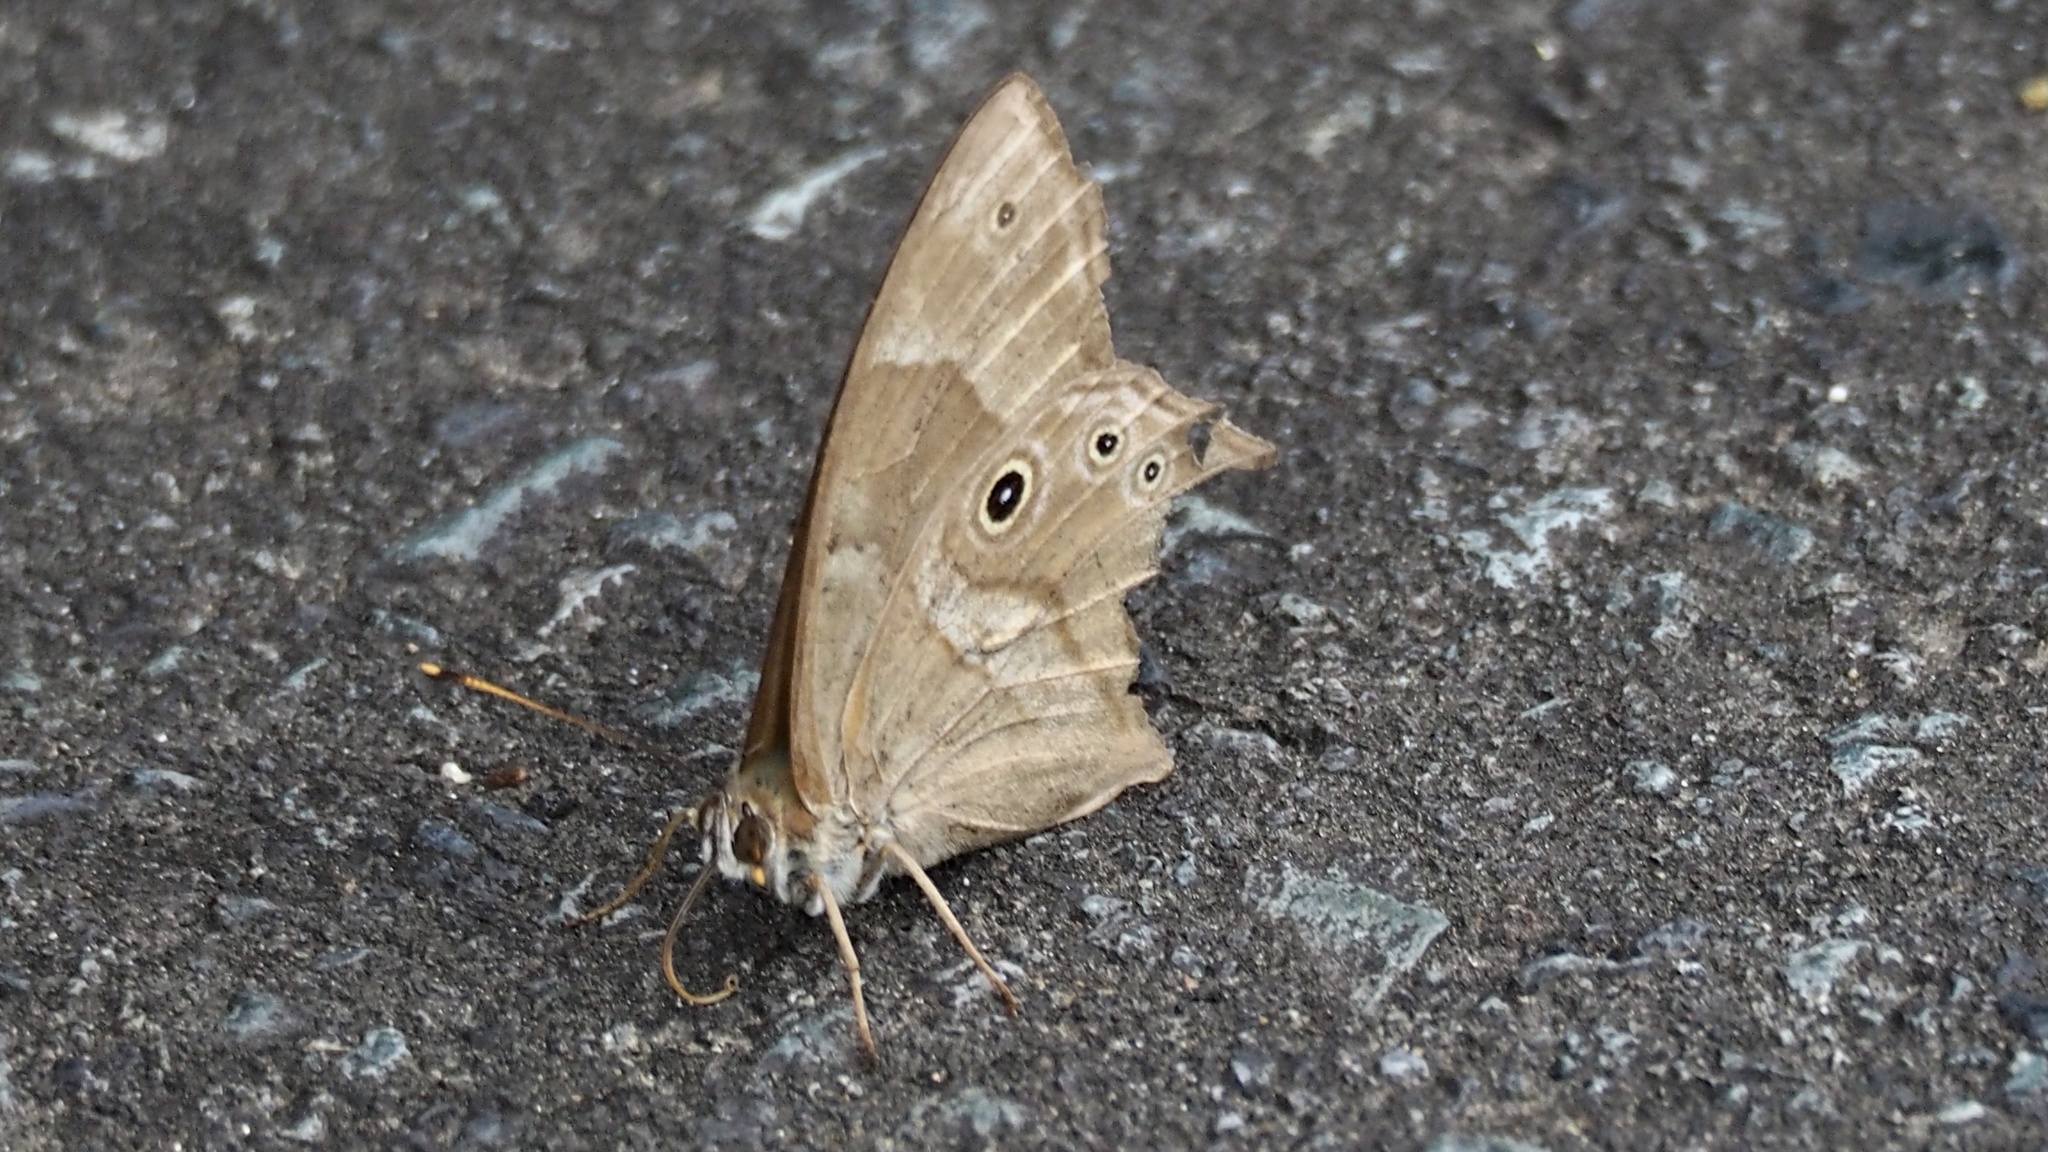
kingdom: Animalia
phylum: Arthropoda
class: Insecta
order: Lepidoptera
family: Nymphalidae
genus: Lethe
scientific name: Lethe sicelis
